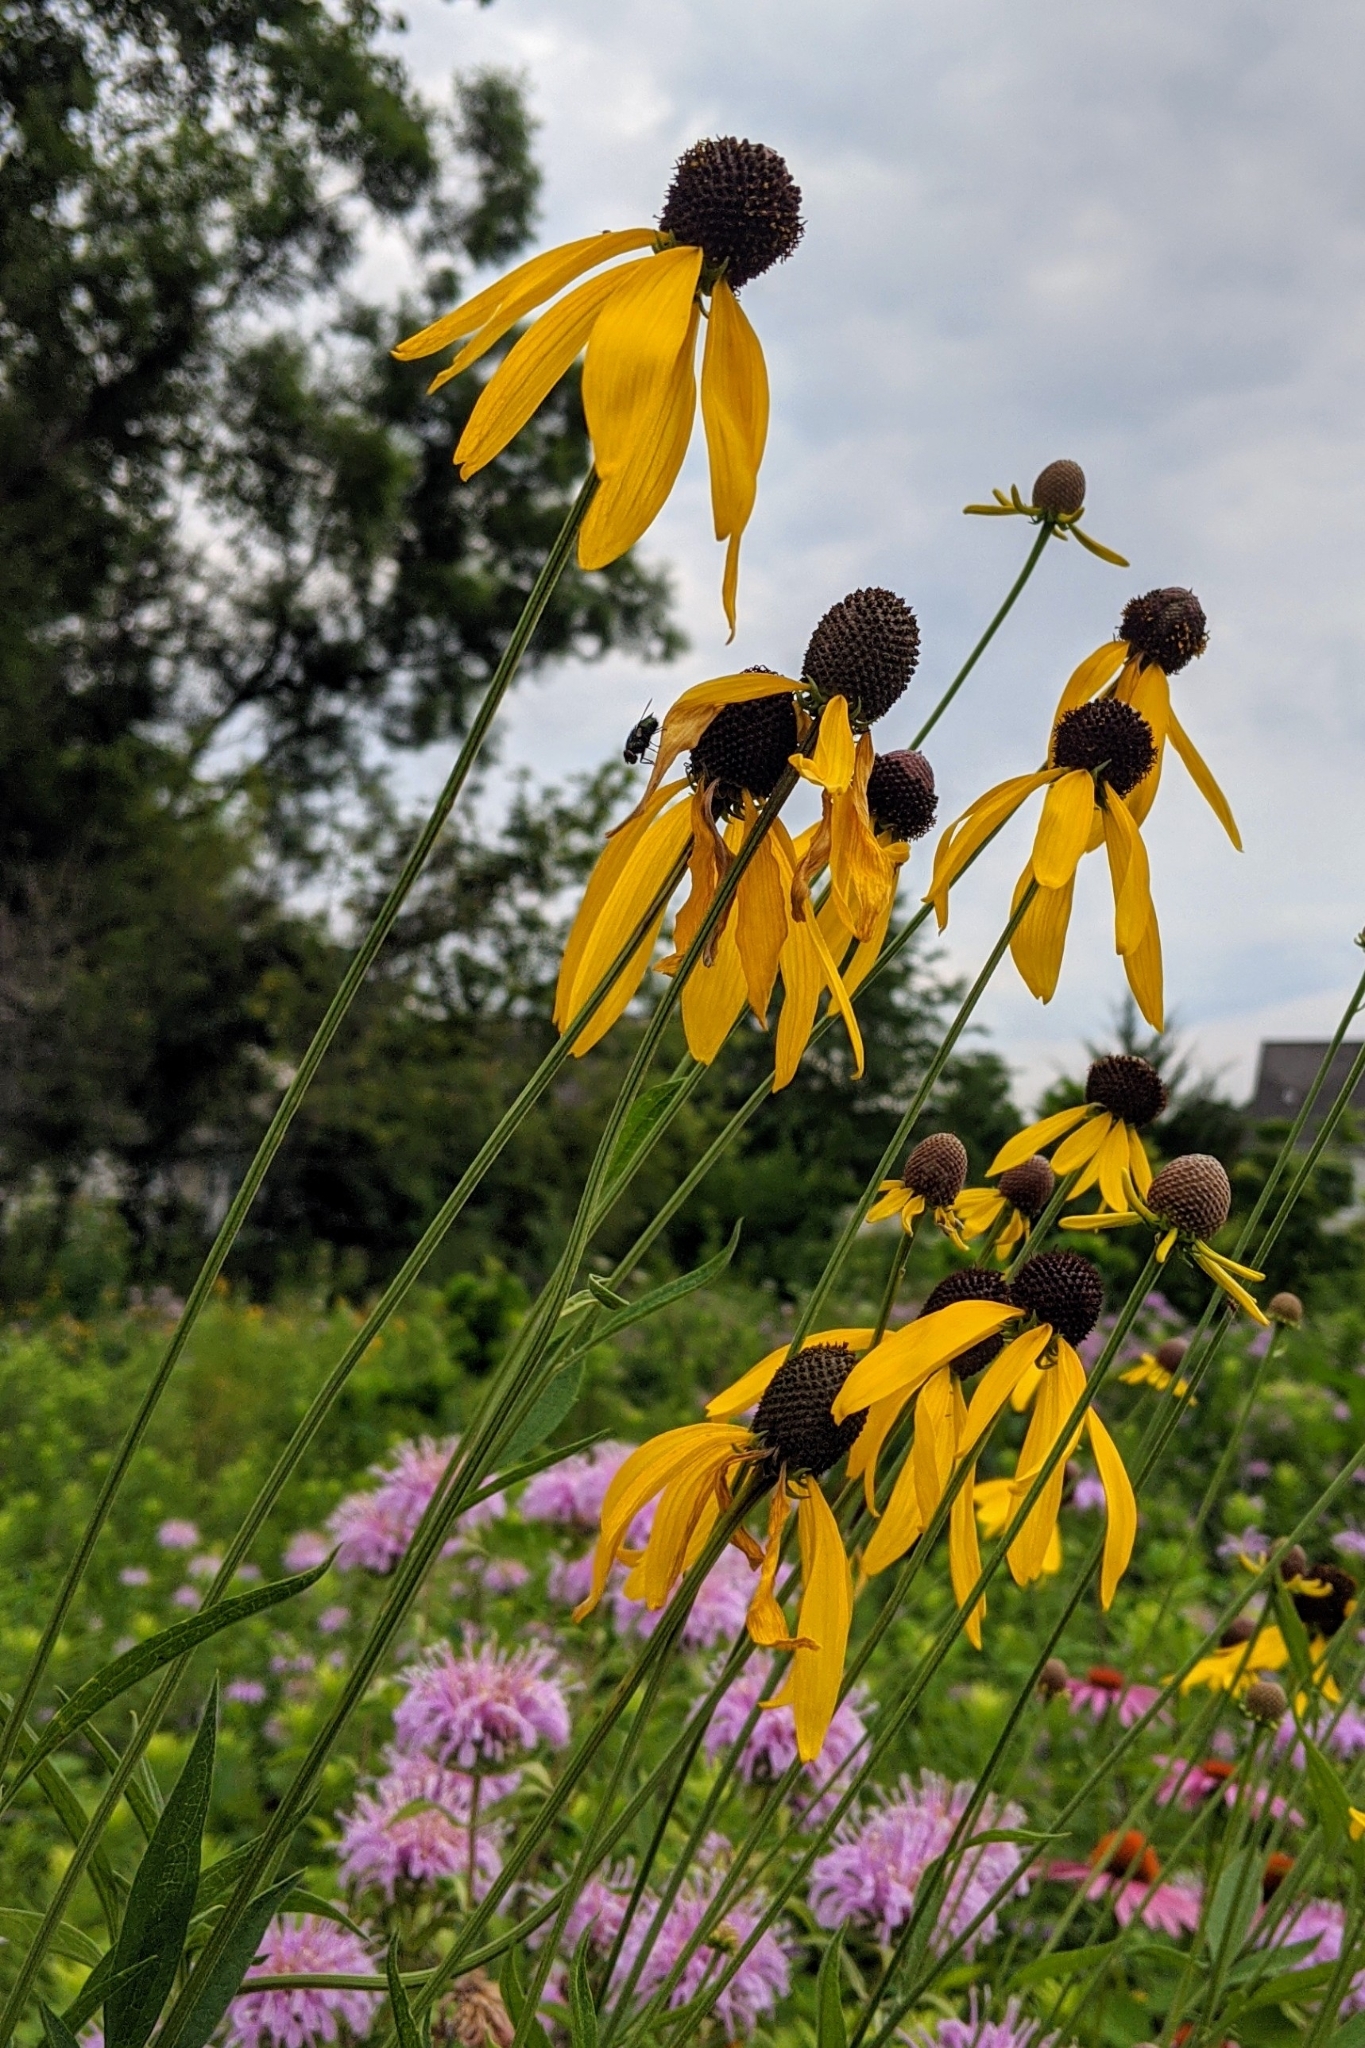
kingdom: Plantae
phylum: Tracheophyta
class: Magnoliopsida
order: Asterales
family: Asteraceae
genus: Ratibida
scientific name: Ratibida pinnata
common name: Drooping prairie-coneflower
